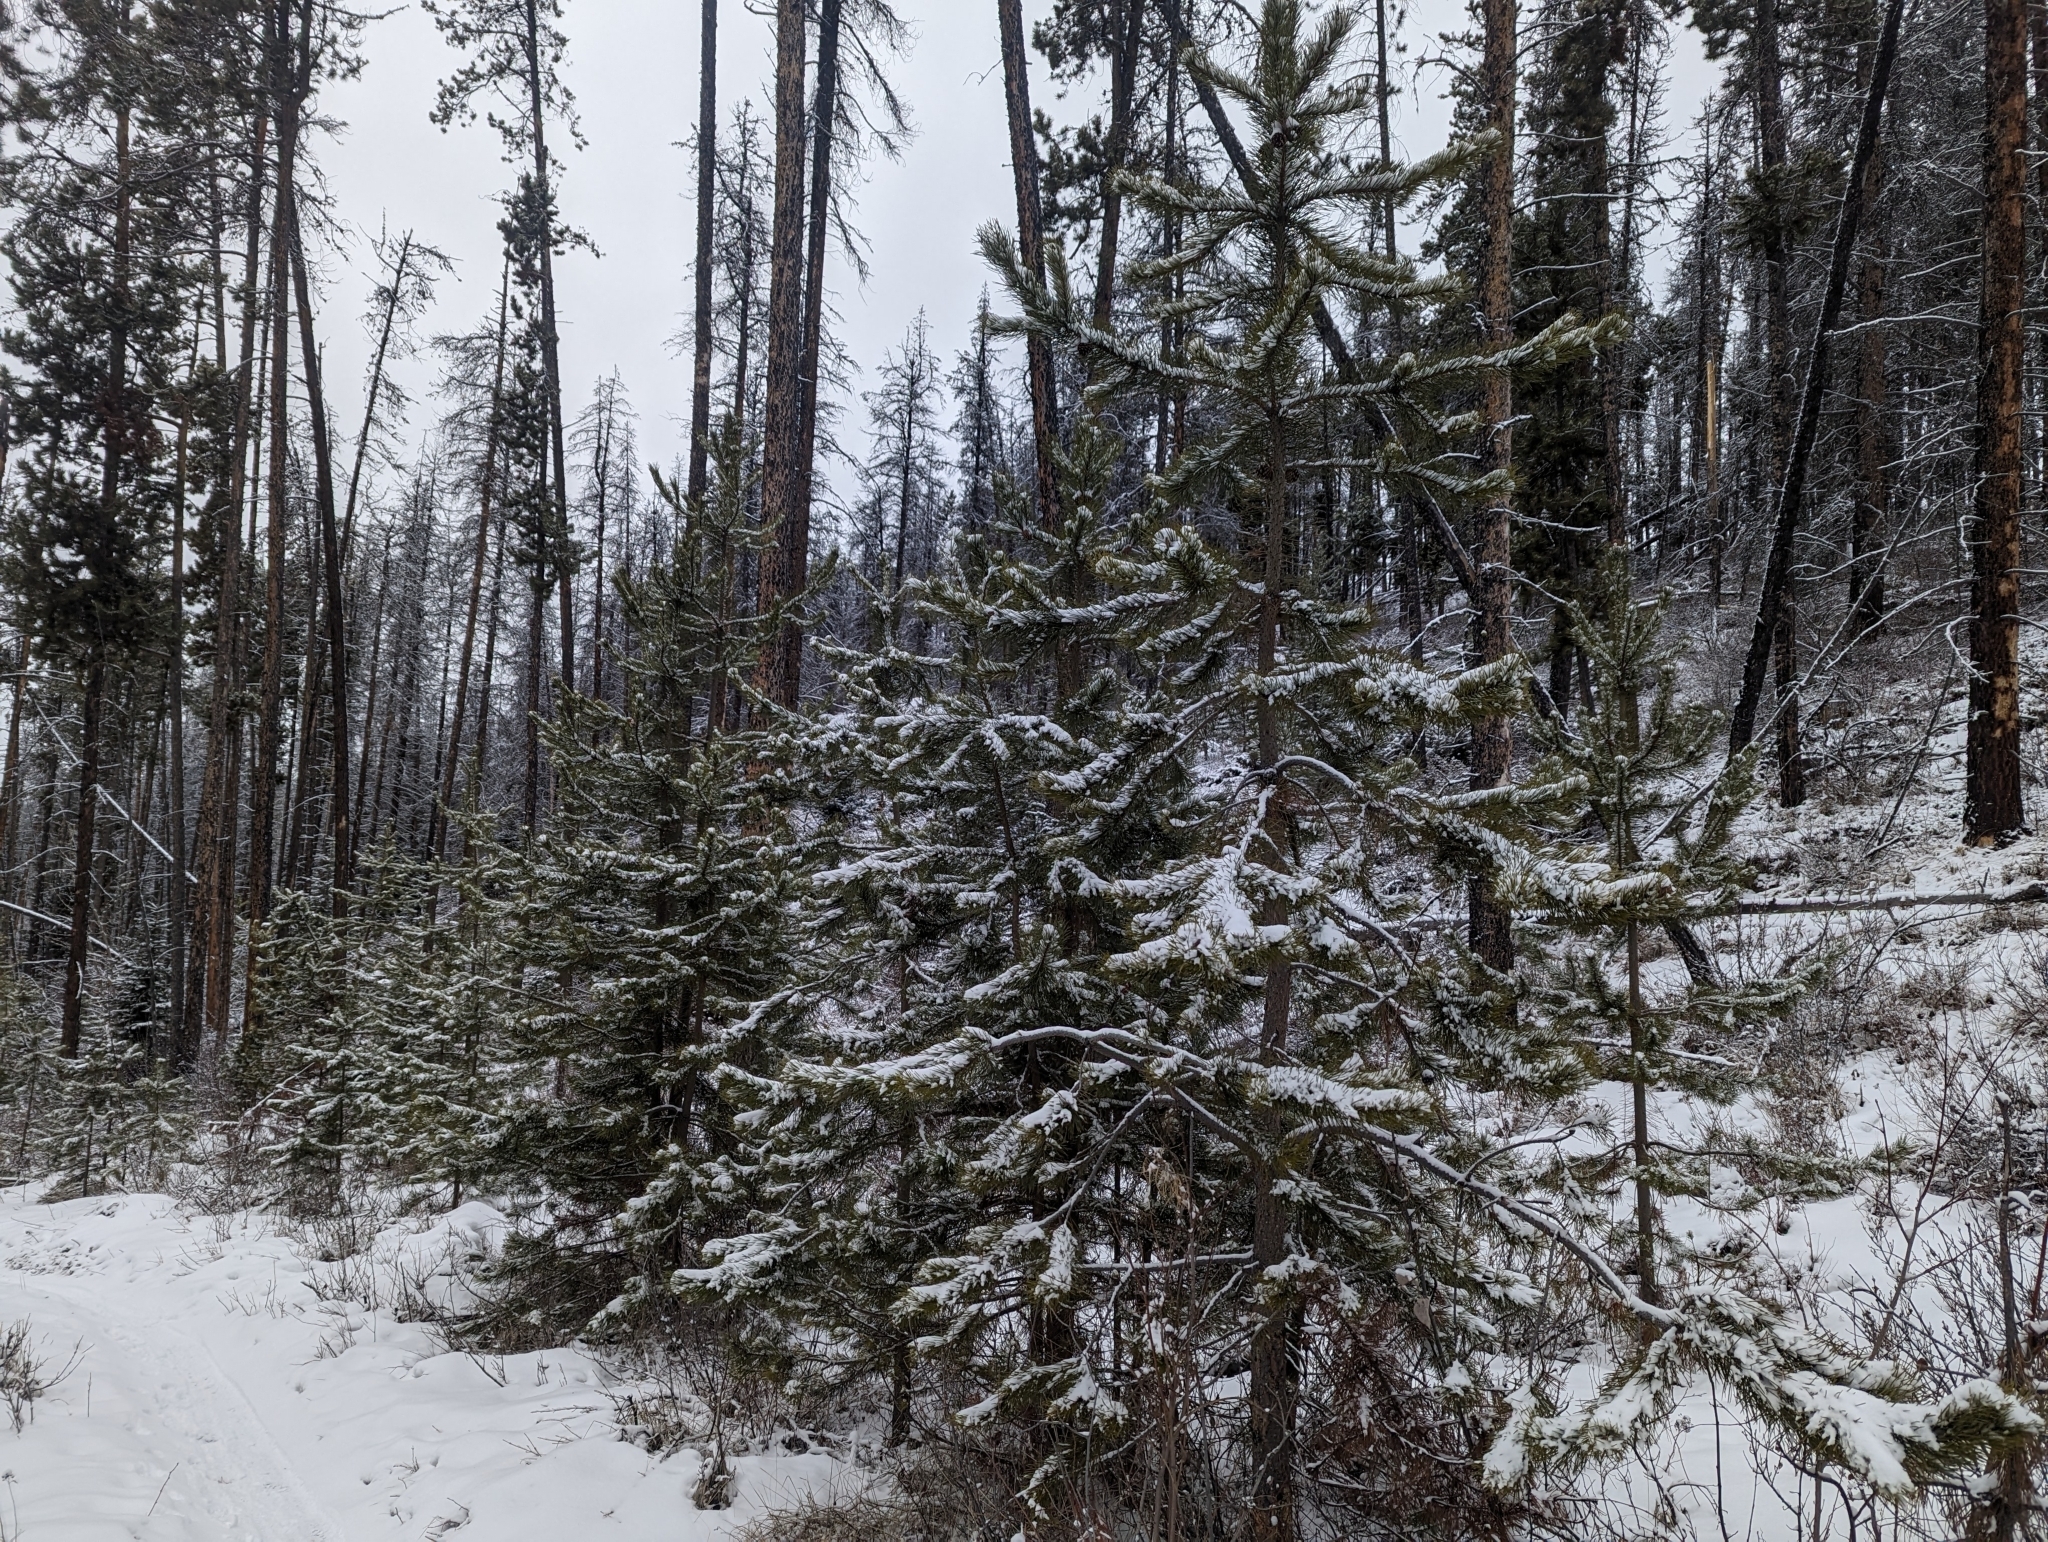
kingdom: Plantae
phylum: Tracheophyta
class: Pinopsida
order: Pinales
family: Pinaceae
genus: Pinus
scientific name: Pinus contorta
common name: Lodgepole pine
